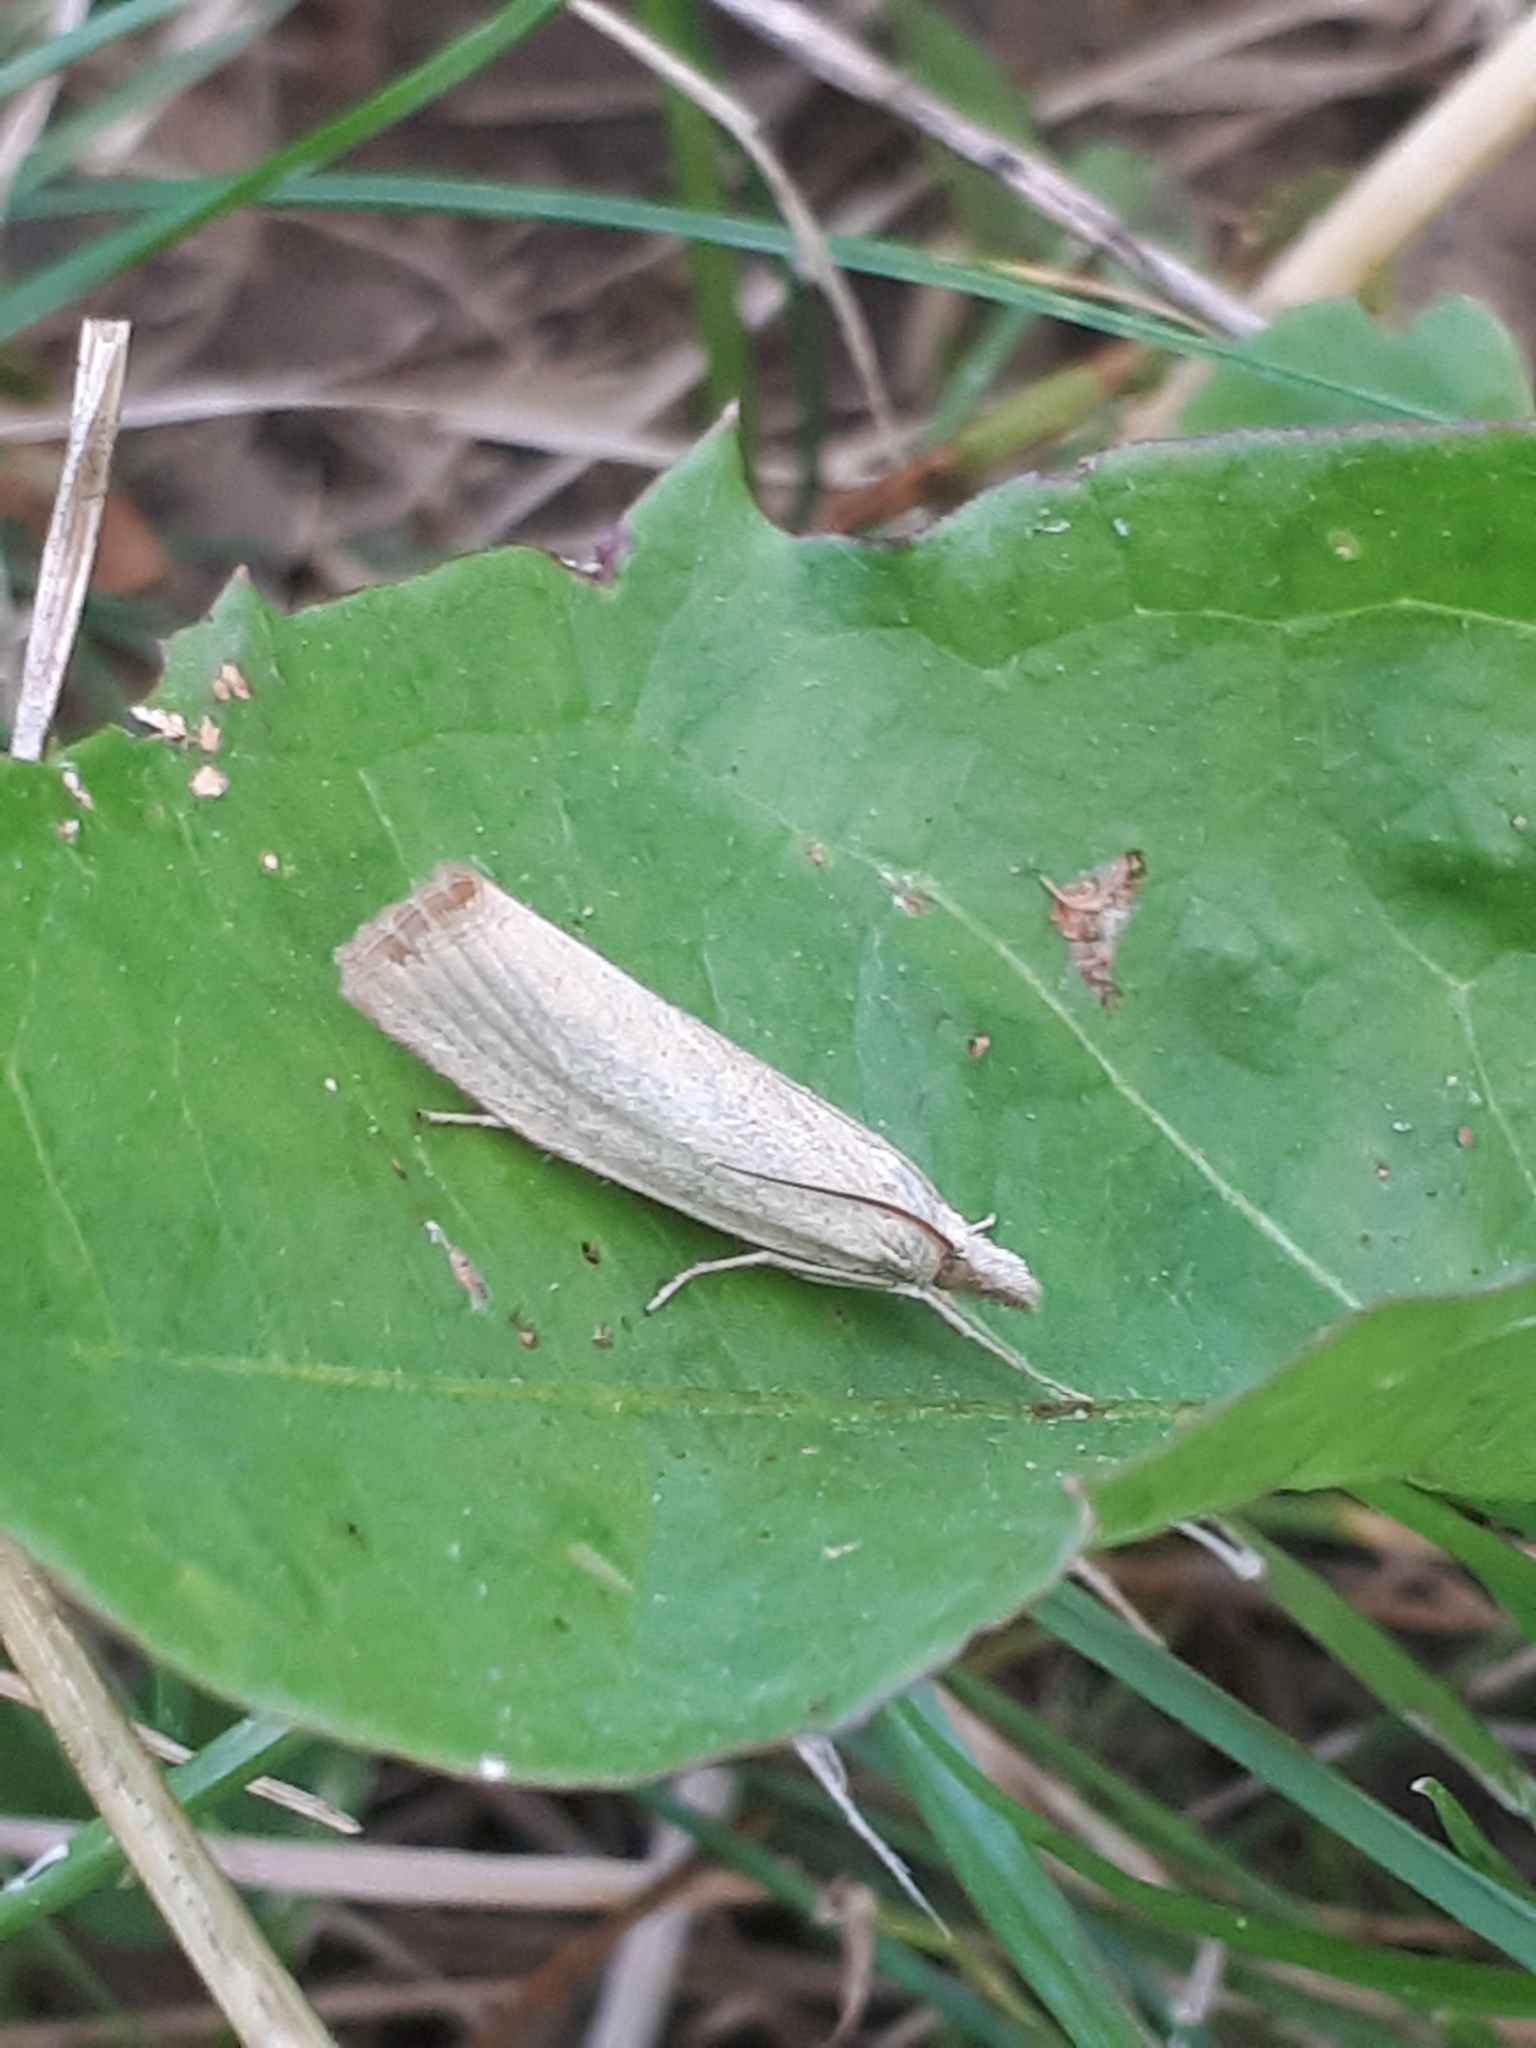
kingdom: Animalia
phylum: Arthropoda
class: Insecta
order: Lepidoptera
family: Crambidae
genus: Agriphila
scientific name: Agriphila straminella
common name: Straw grass-veneer
